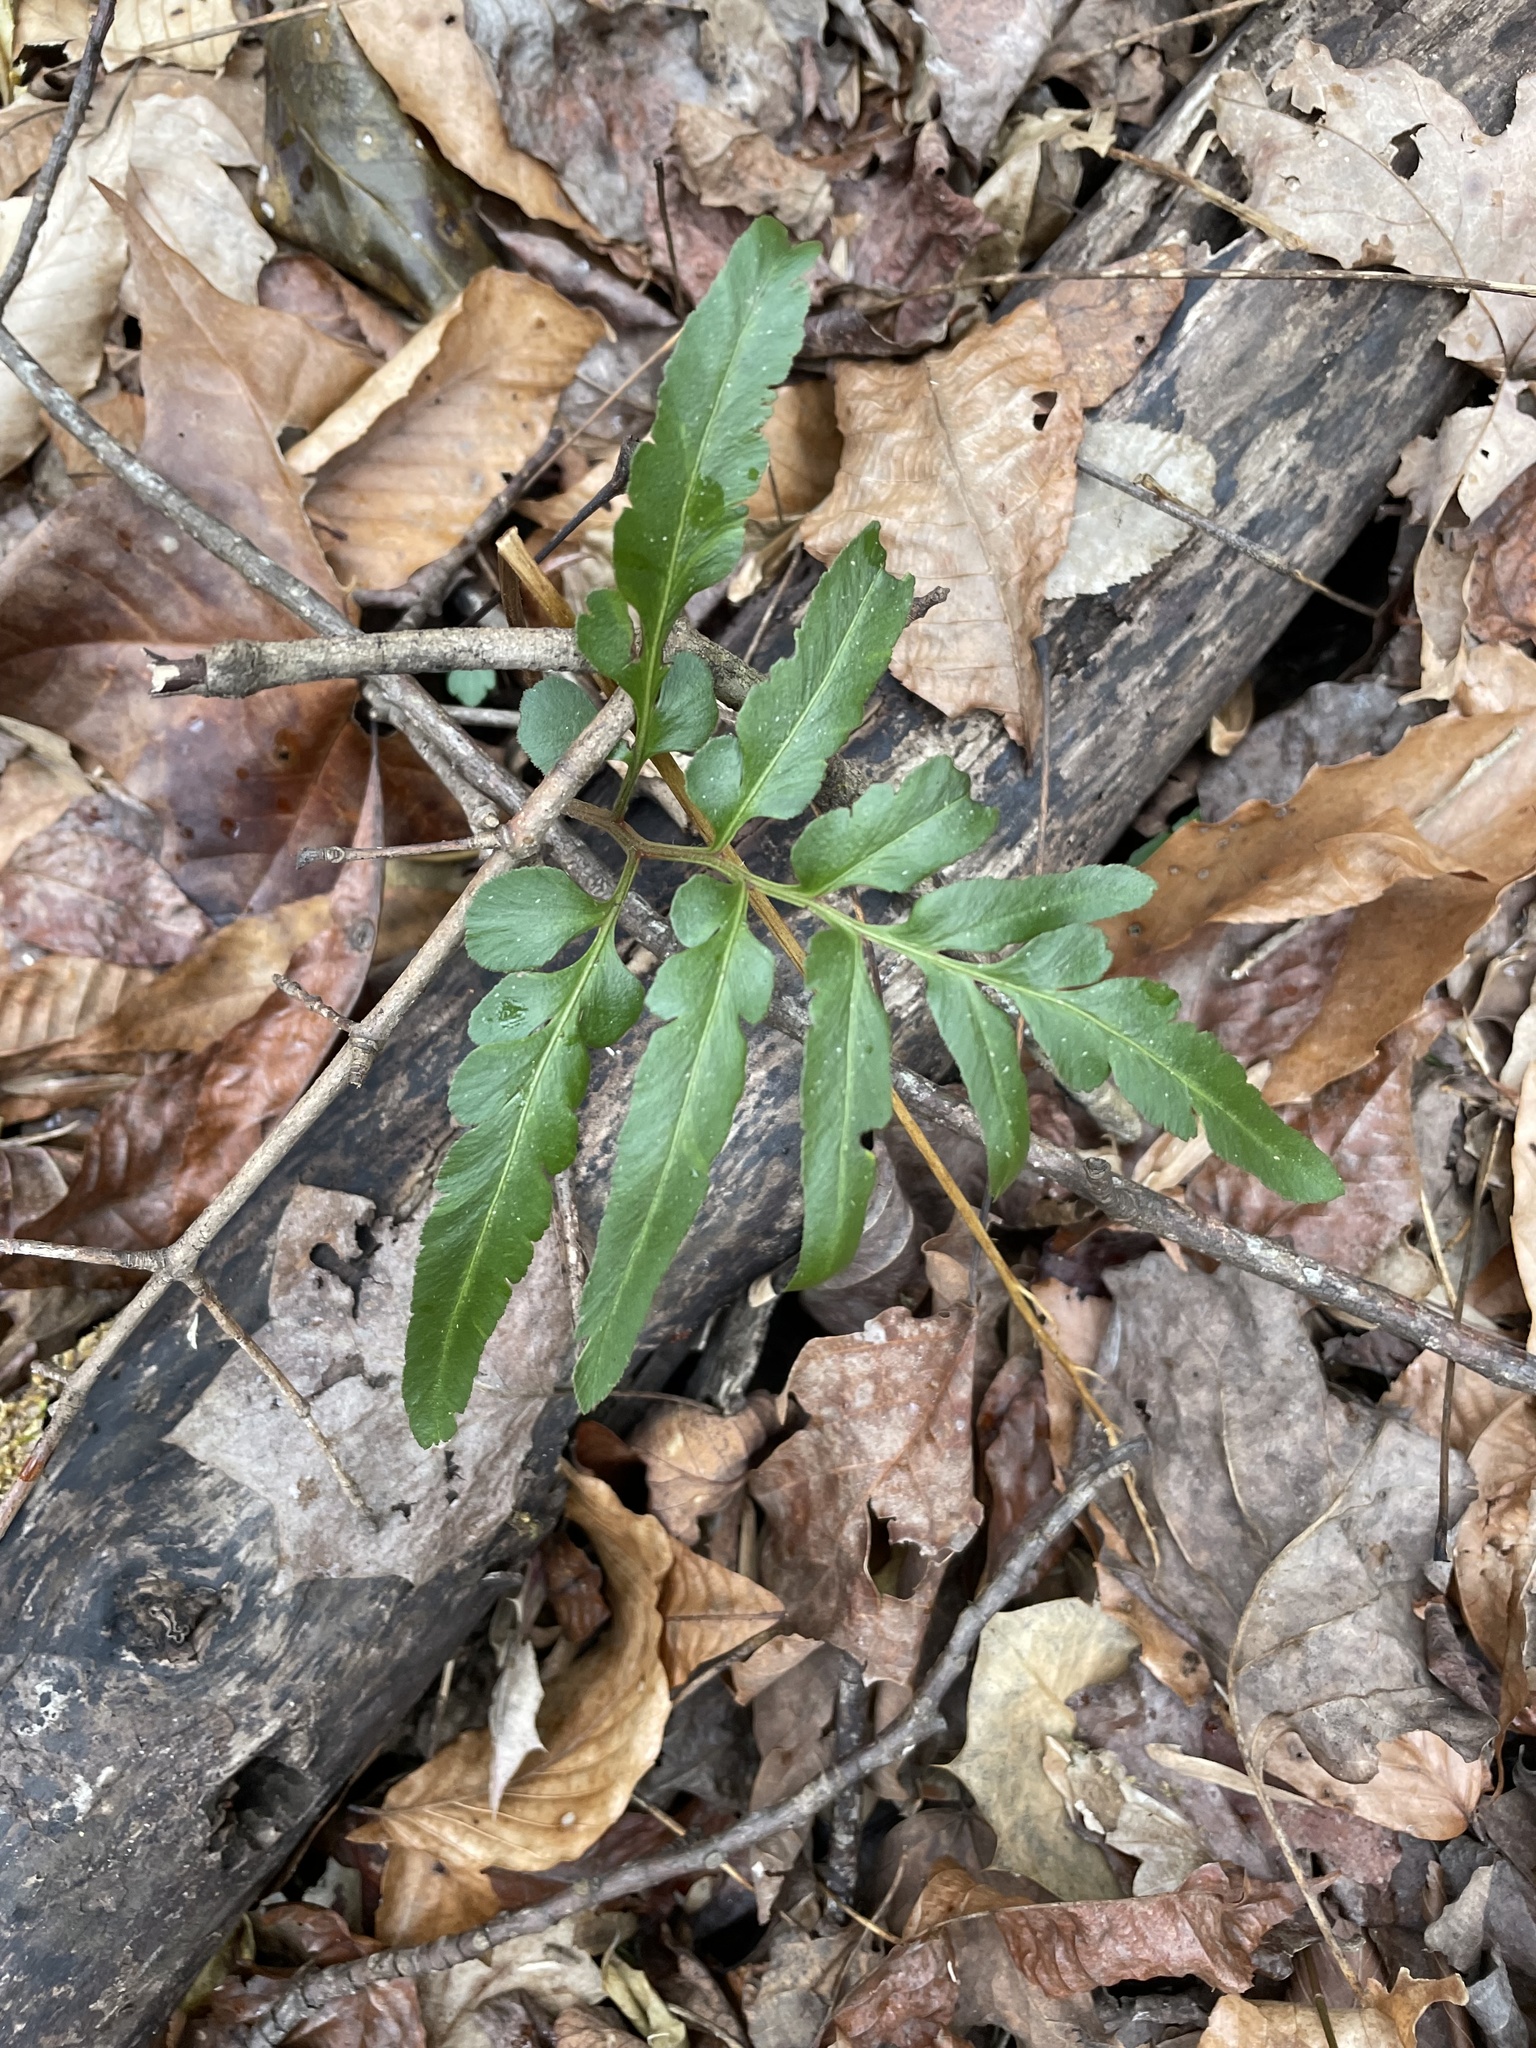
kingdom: Plantae
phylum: Tracheophyta
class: Polypodiopsida
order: Ophioglossales
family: Ophioglossaceae
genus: Sceptridium
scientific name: Sceptridium biternatum
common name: Sparse-lobed grapefern
